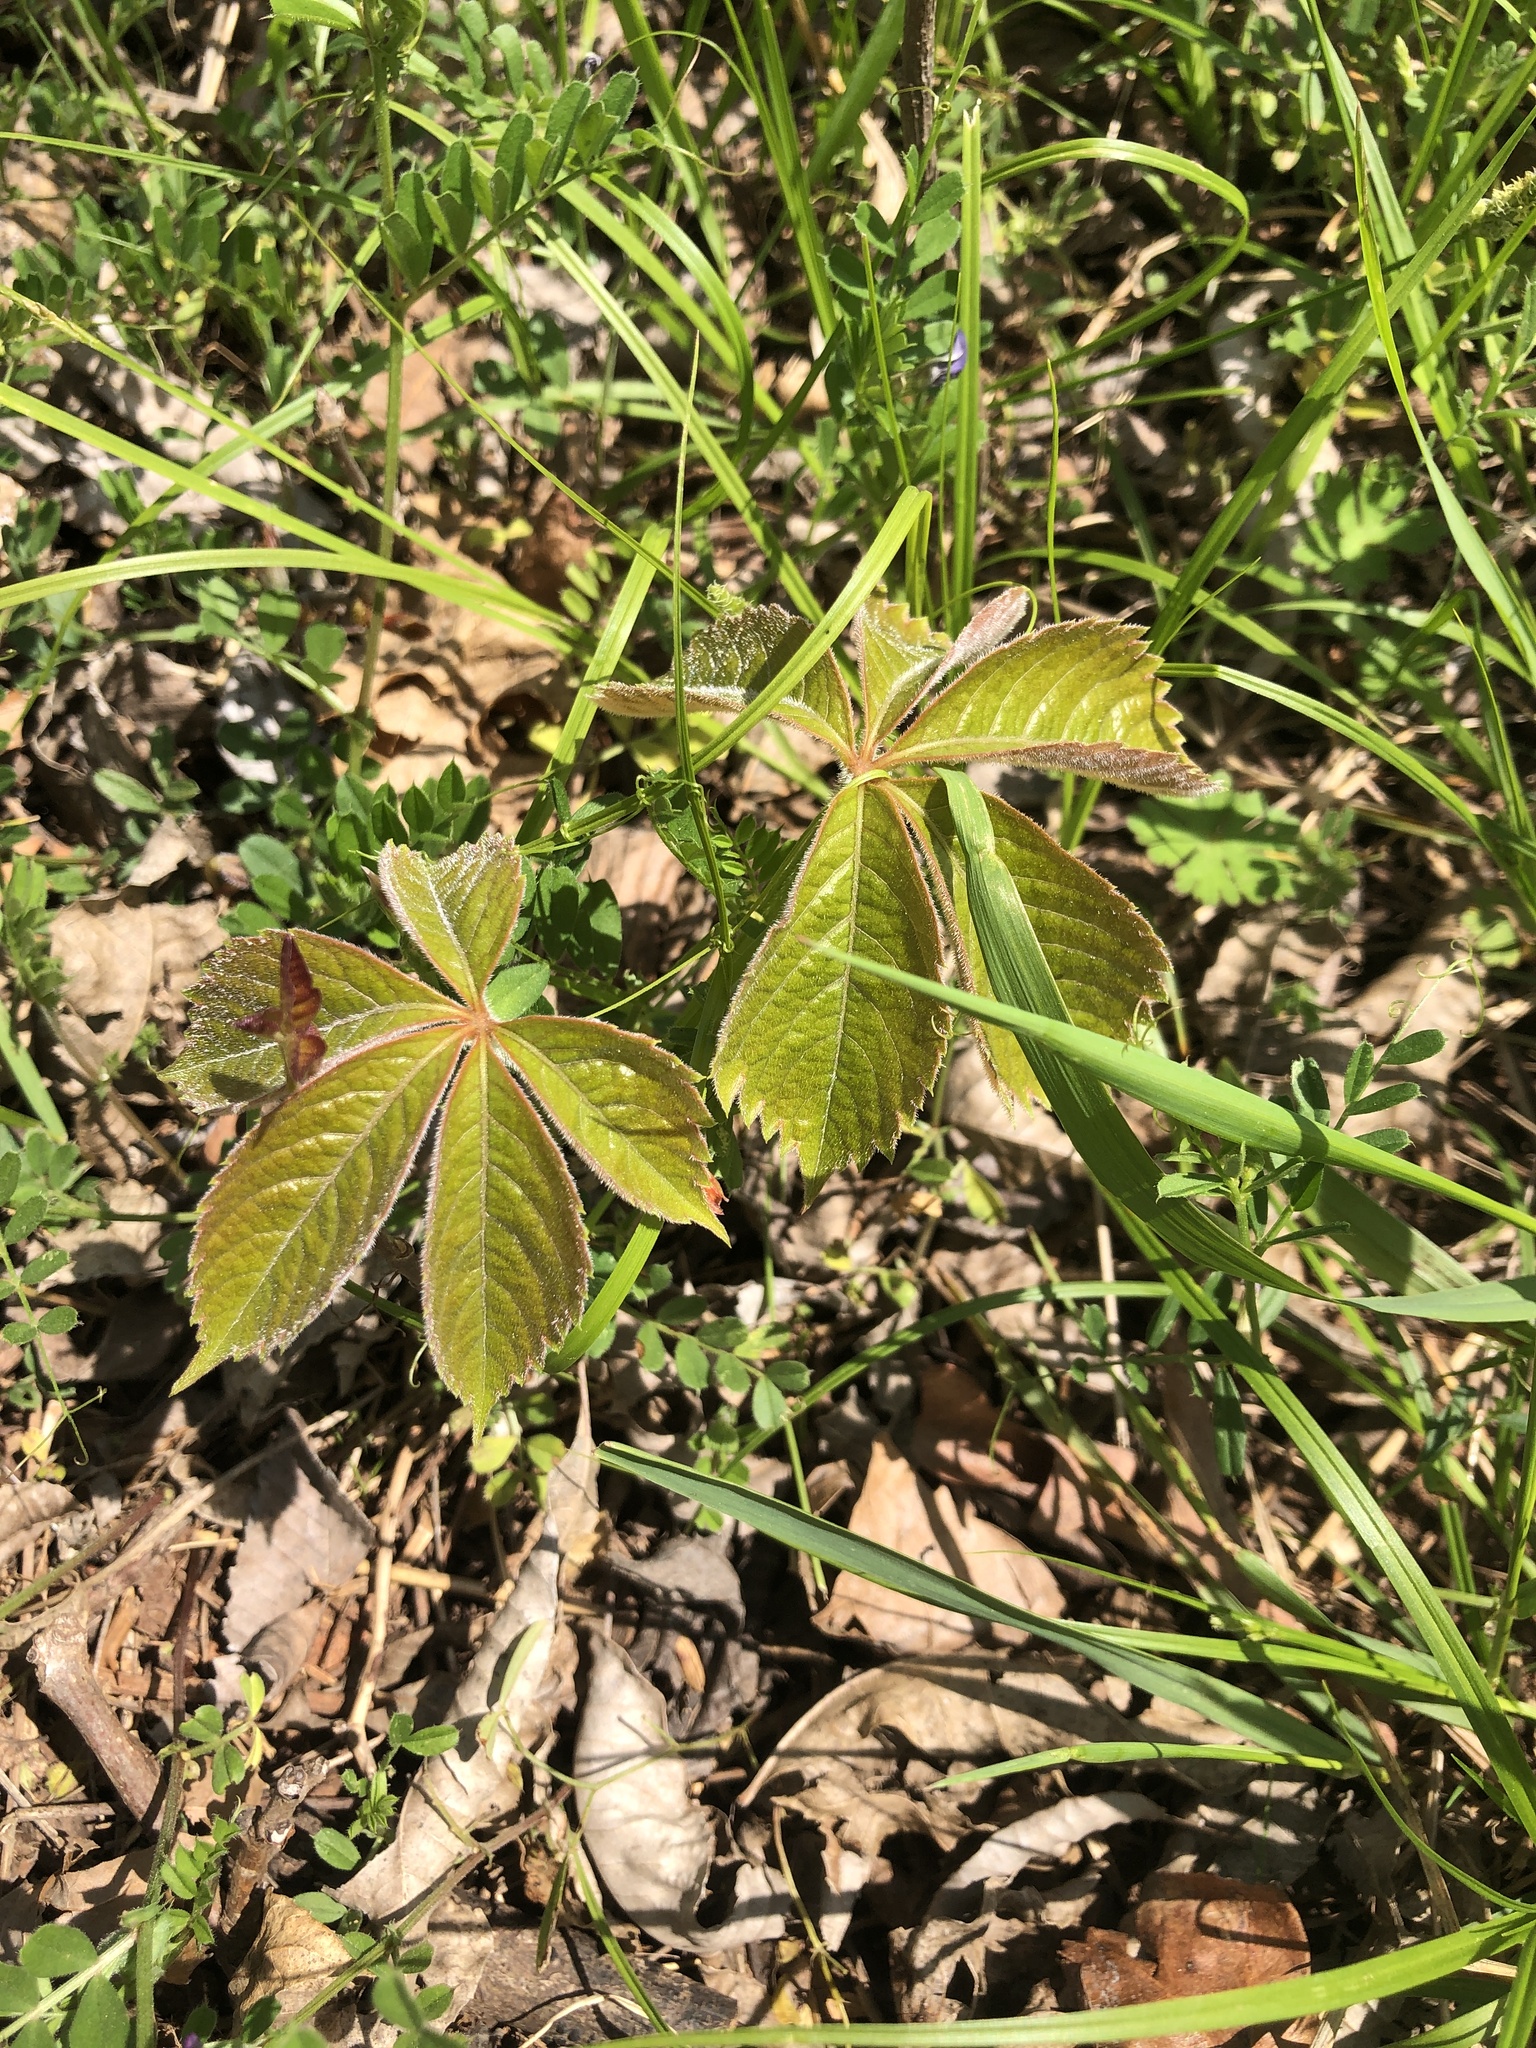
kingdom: Plantae
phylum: Tracheophyta
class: Magnoliopsida
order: Vitales
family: Vitaceae
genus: Parthenocissus
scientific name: Parthenocissus quinquefolia
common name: Virginia-creeper
